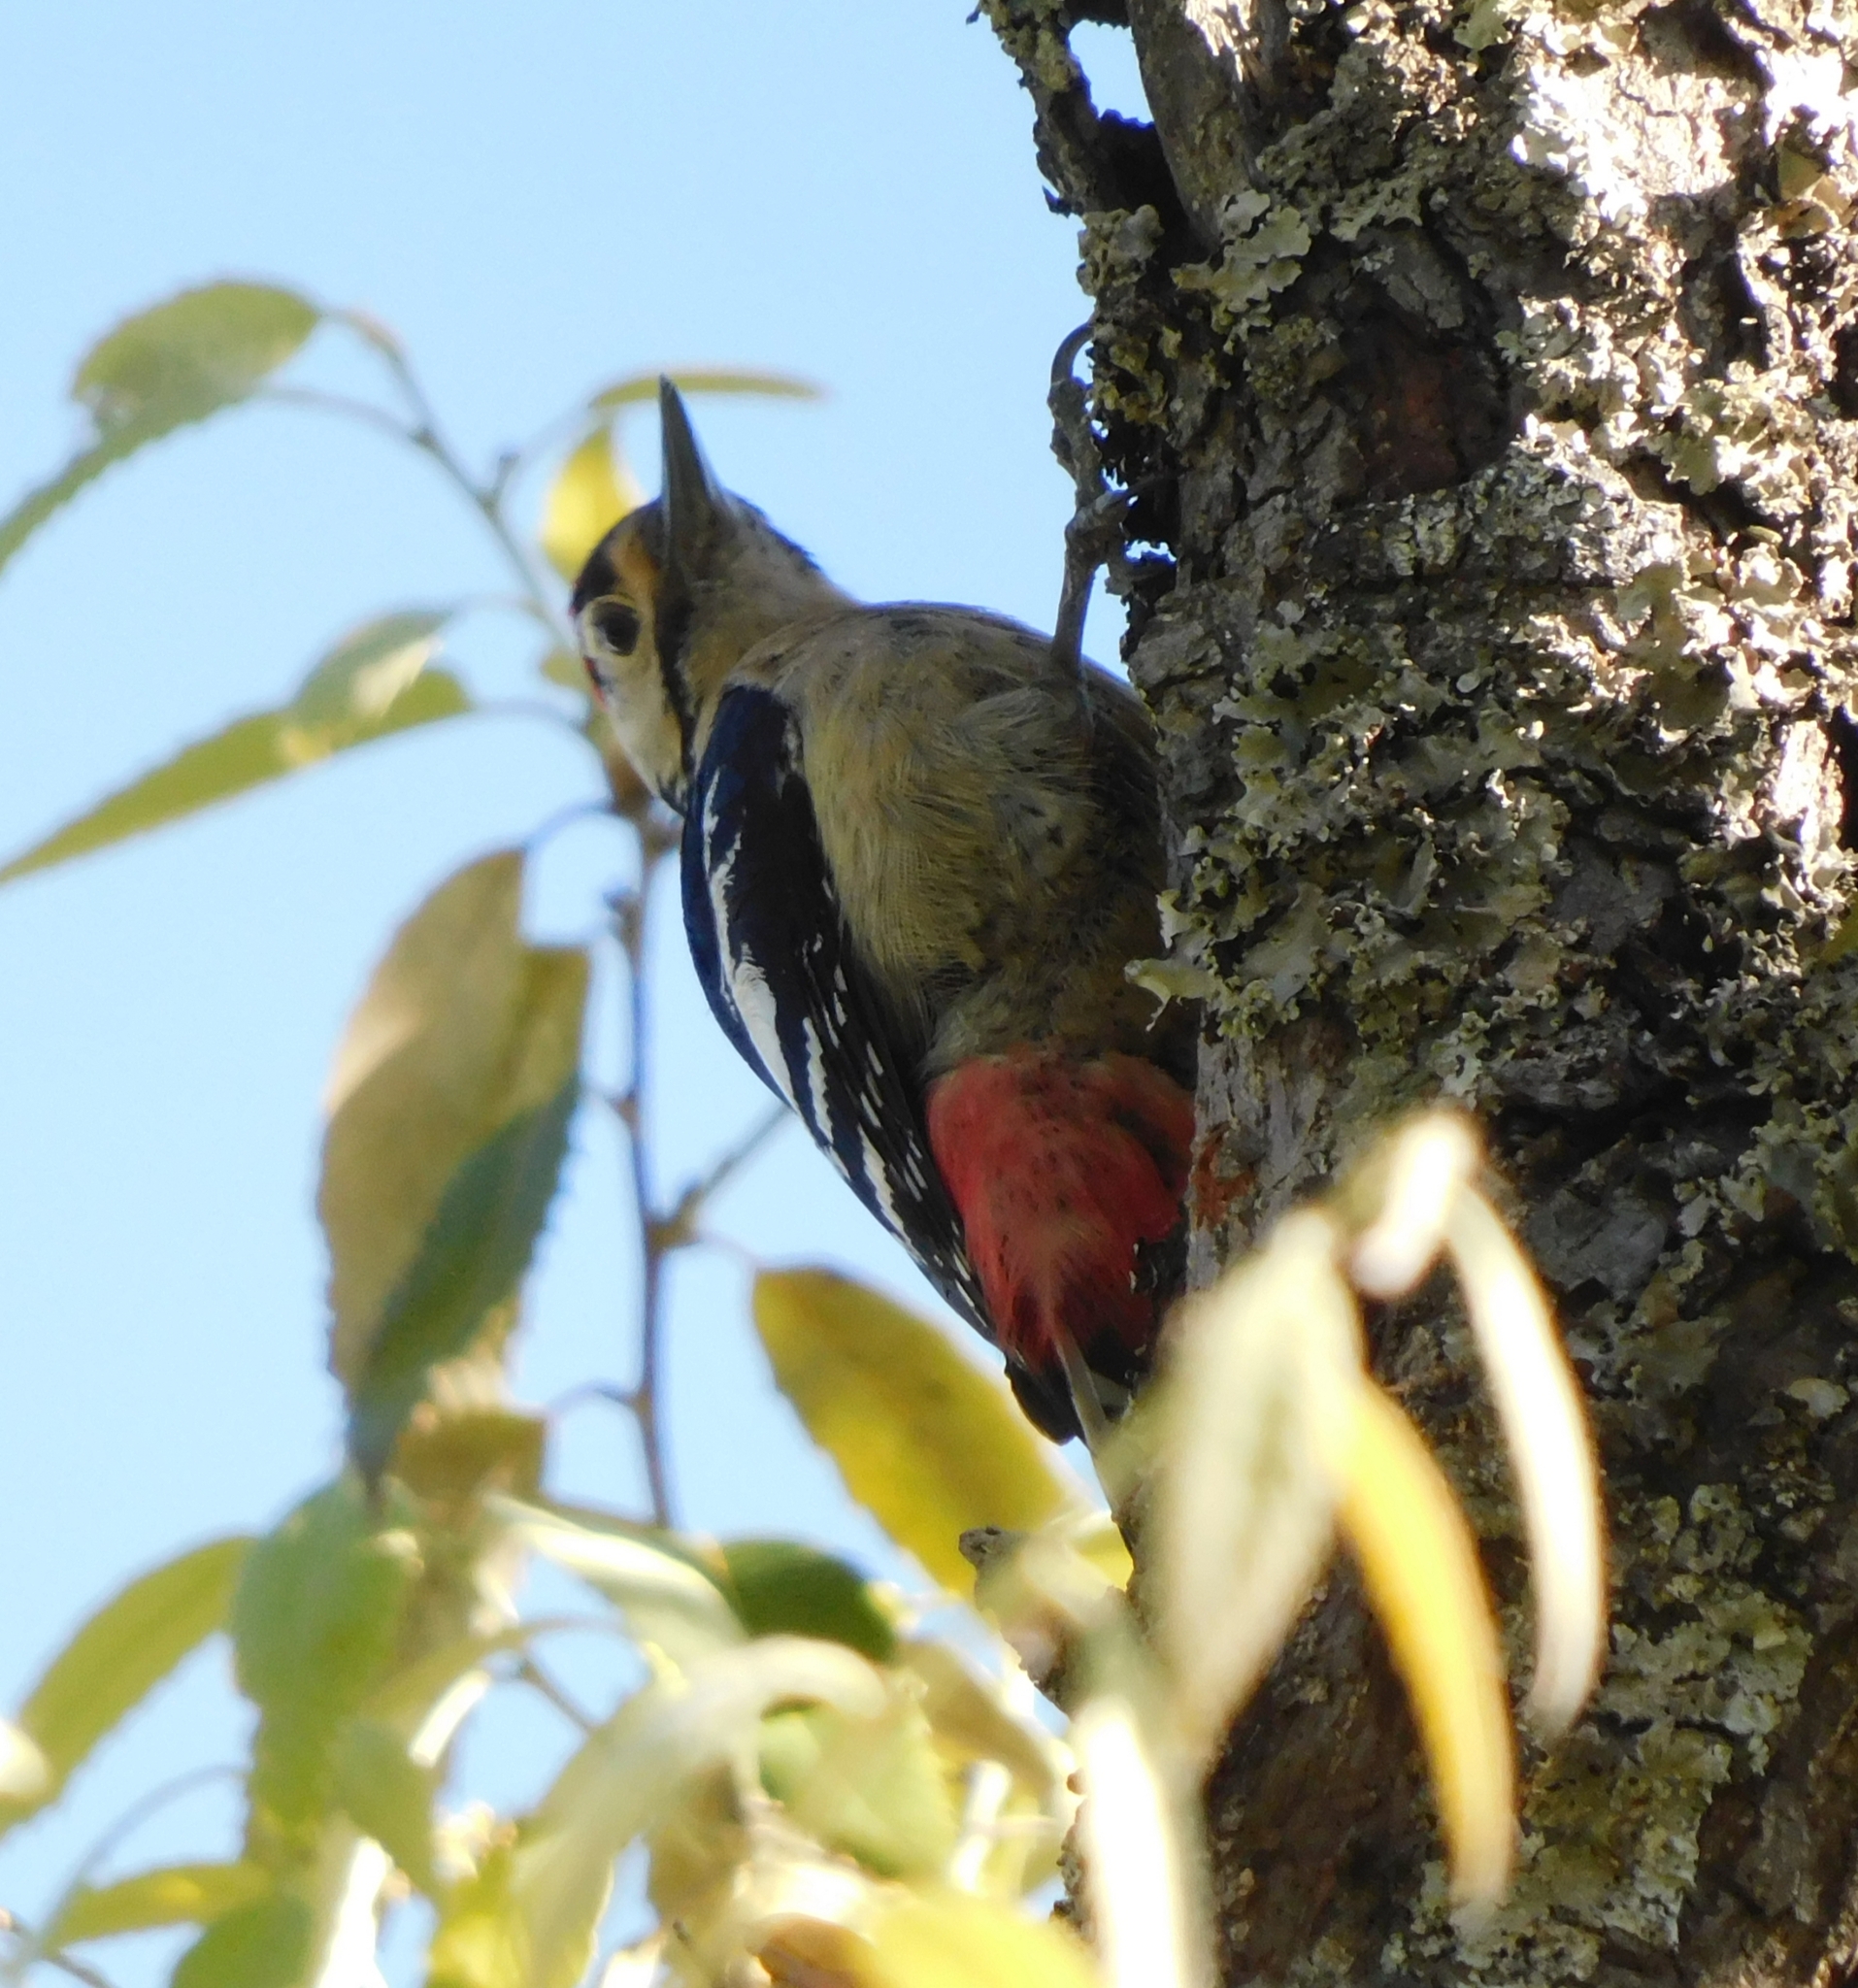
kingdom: Animalia
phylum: Chordata
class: Aves
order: Piciformes
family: Picidae
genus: Dendrocopos
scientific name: Dendrocopos himalayensis
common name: Himalayan woodpecker
